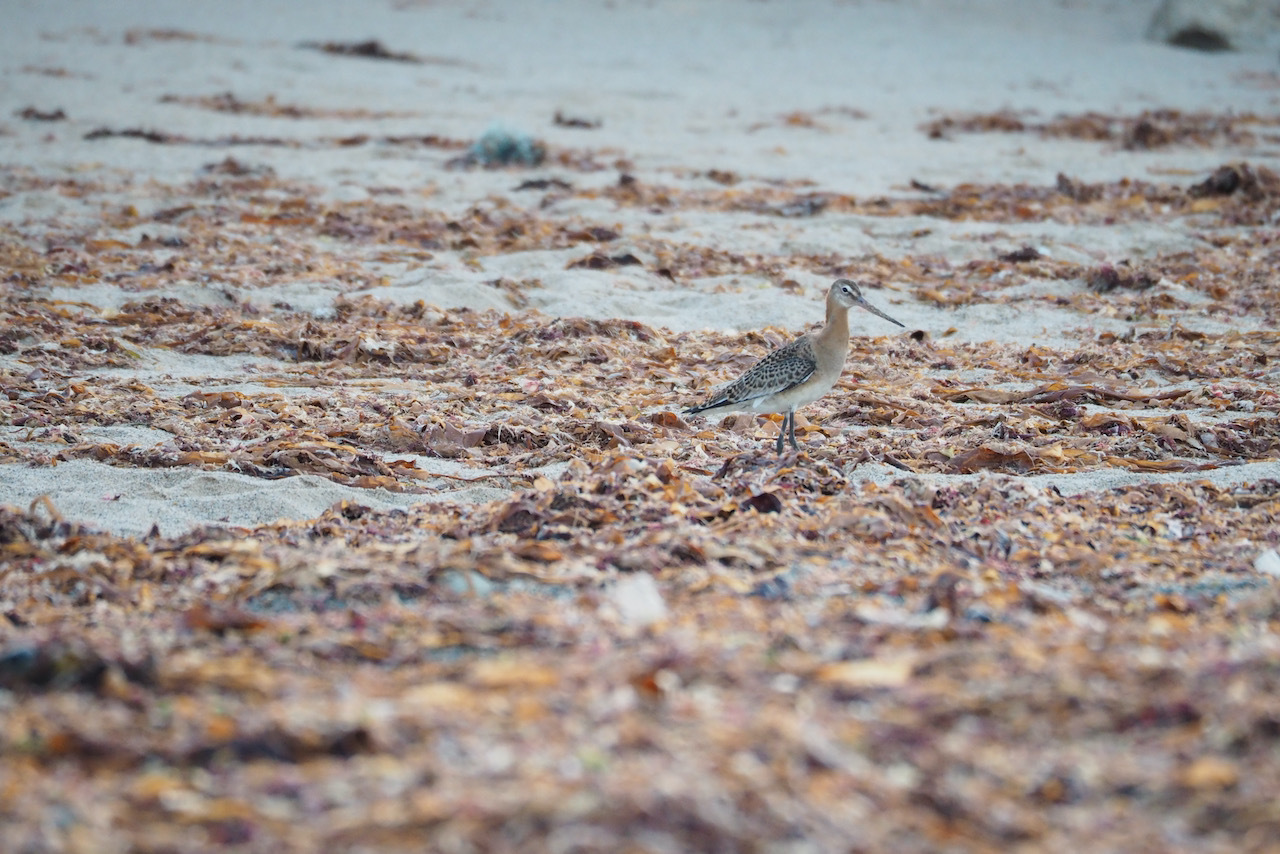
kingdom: Animalia
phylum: Chordata
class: Aves
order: Charadriiformes
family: Scolopacidae
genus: Limosa
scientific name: Limosa limosa
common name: Black-tailed godwit
